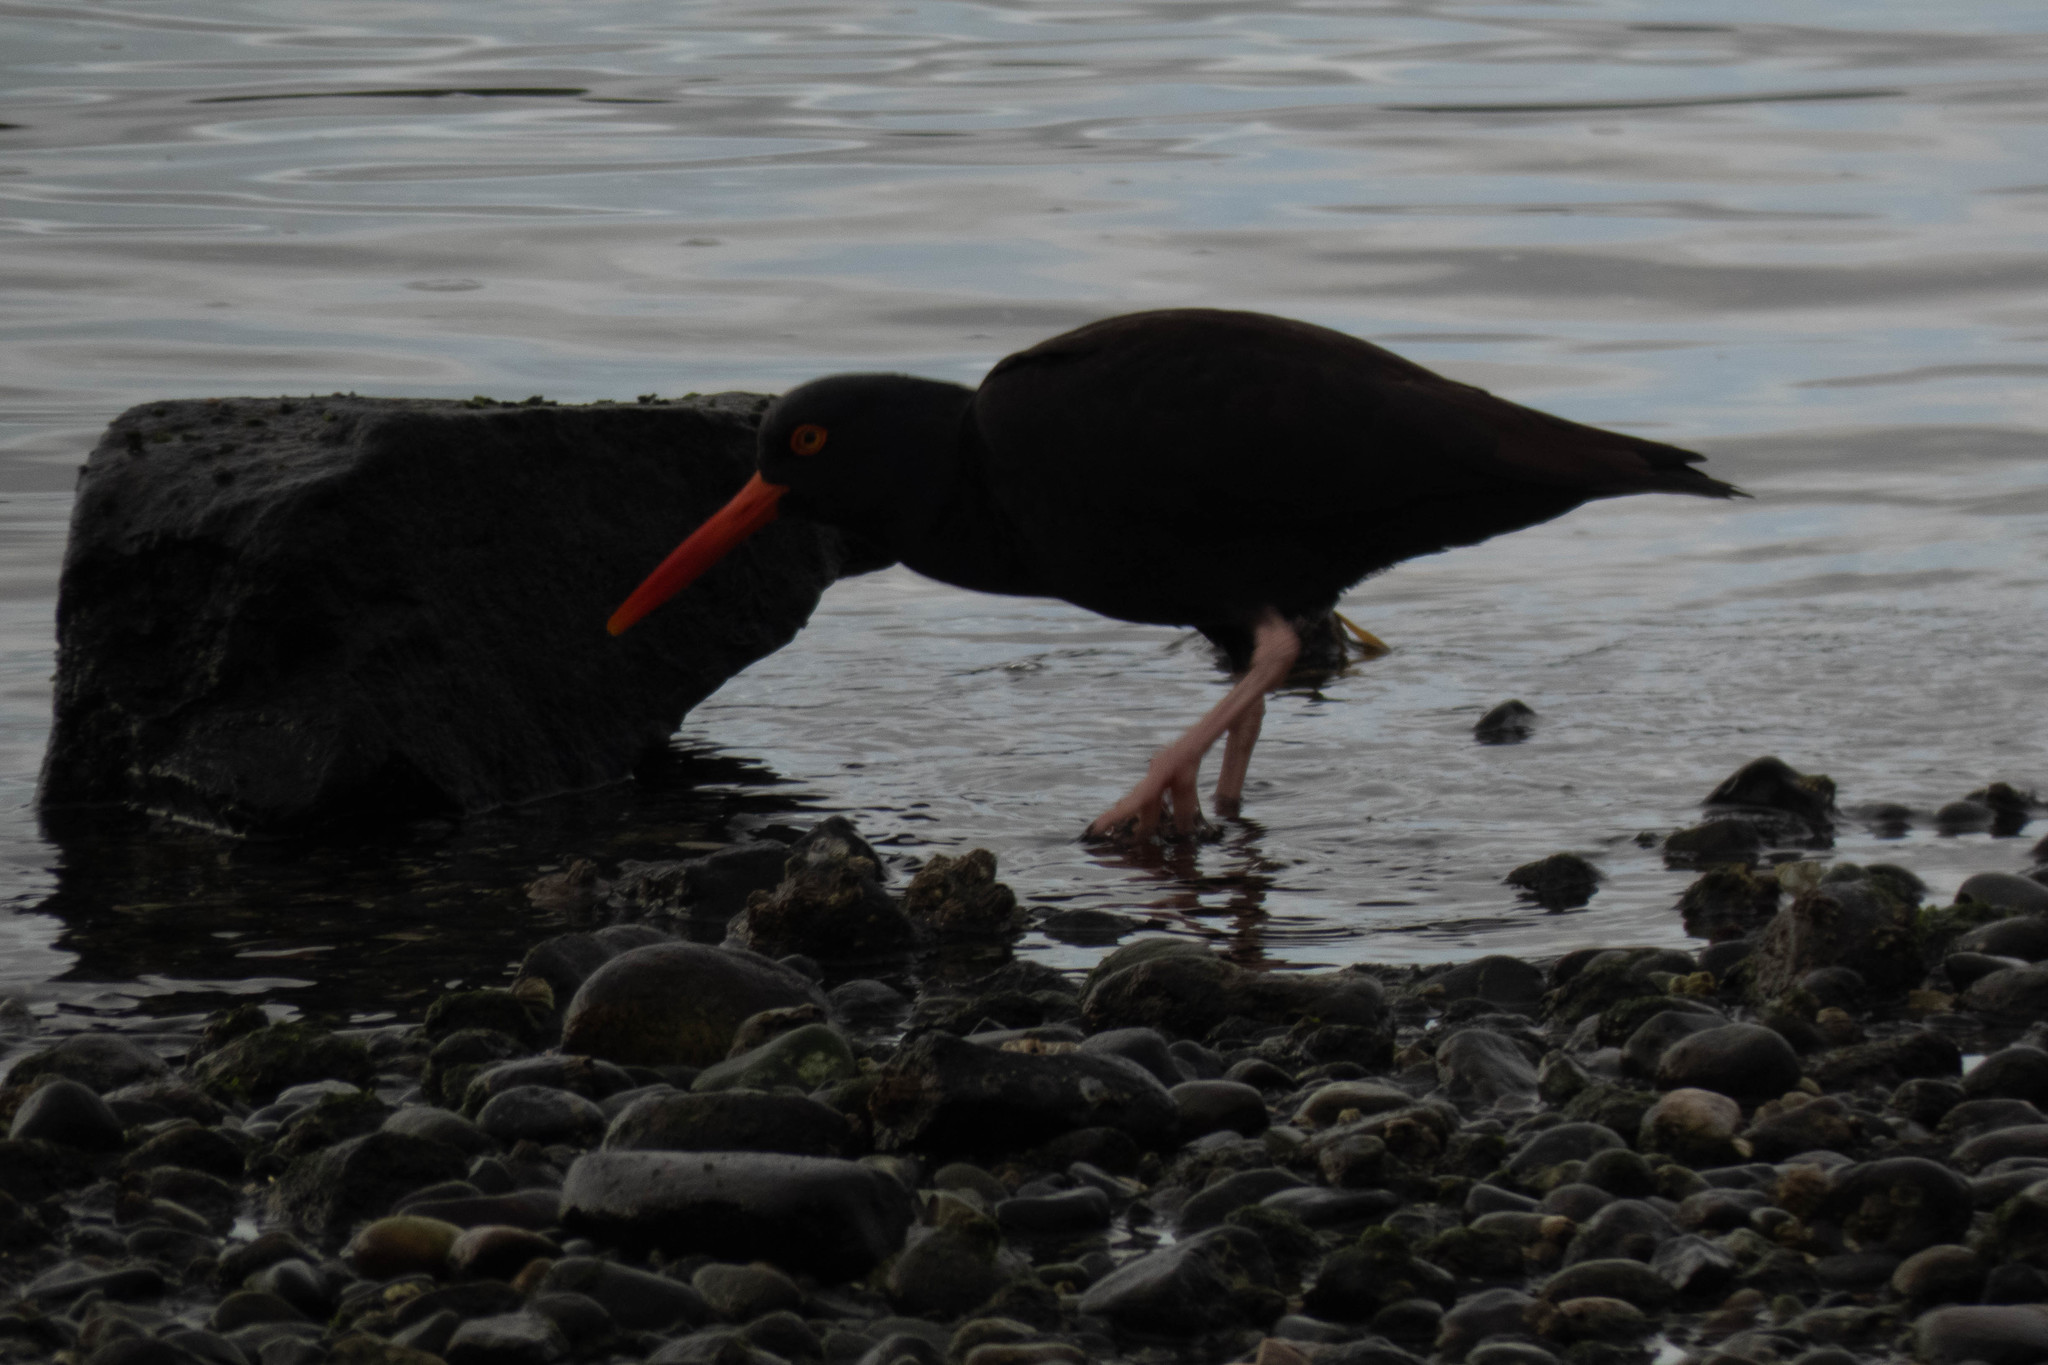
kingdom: Animalia
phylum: Chordata
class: Aves
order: Charadriiformes
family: Haematopodidae
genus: Haematopus
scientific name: Haematopus bachmani
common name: Black oystercatcher
